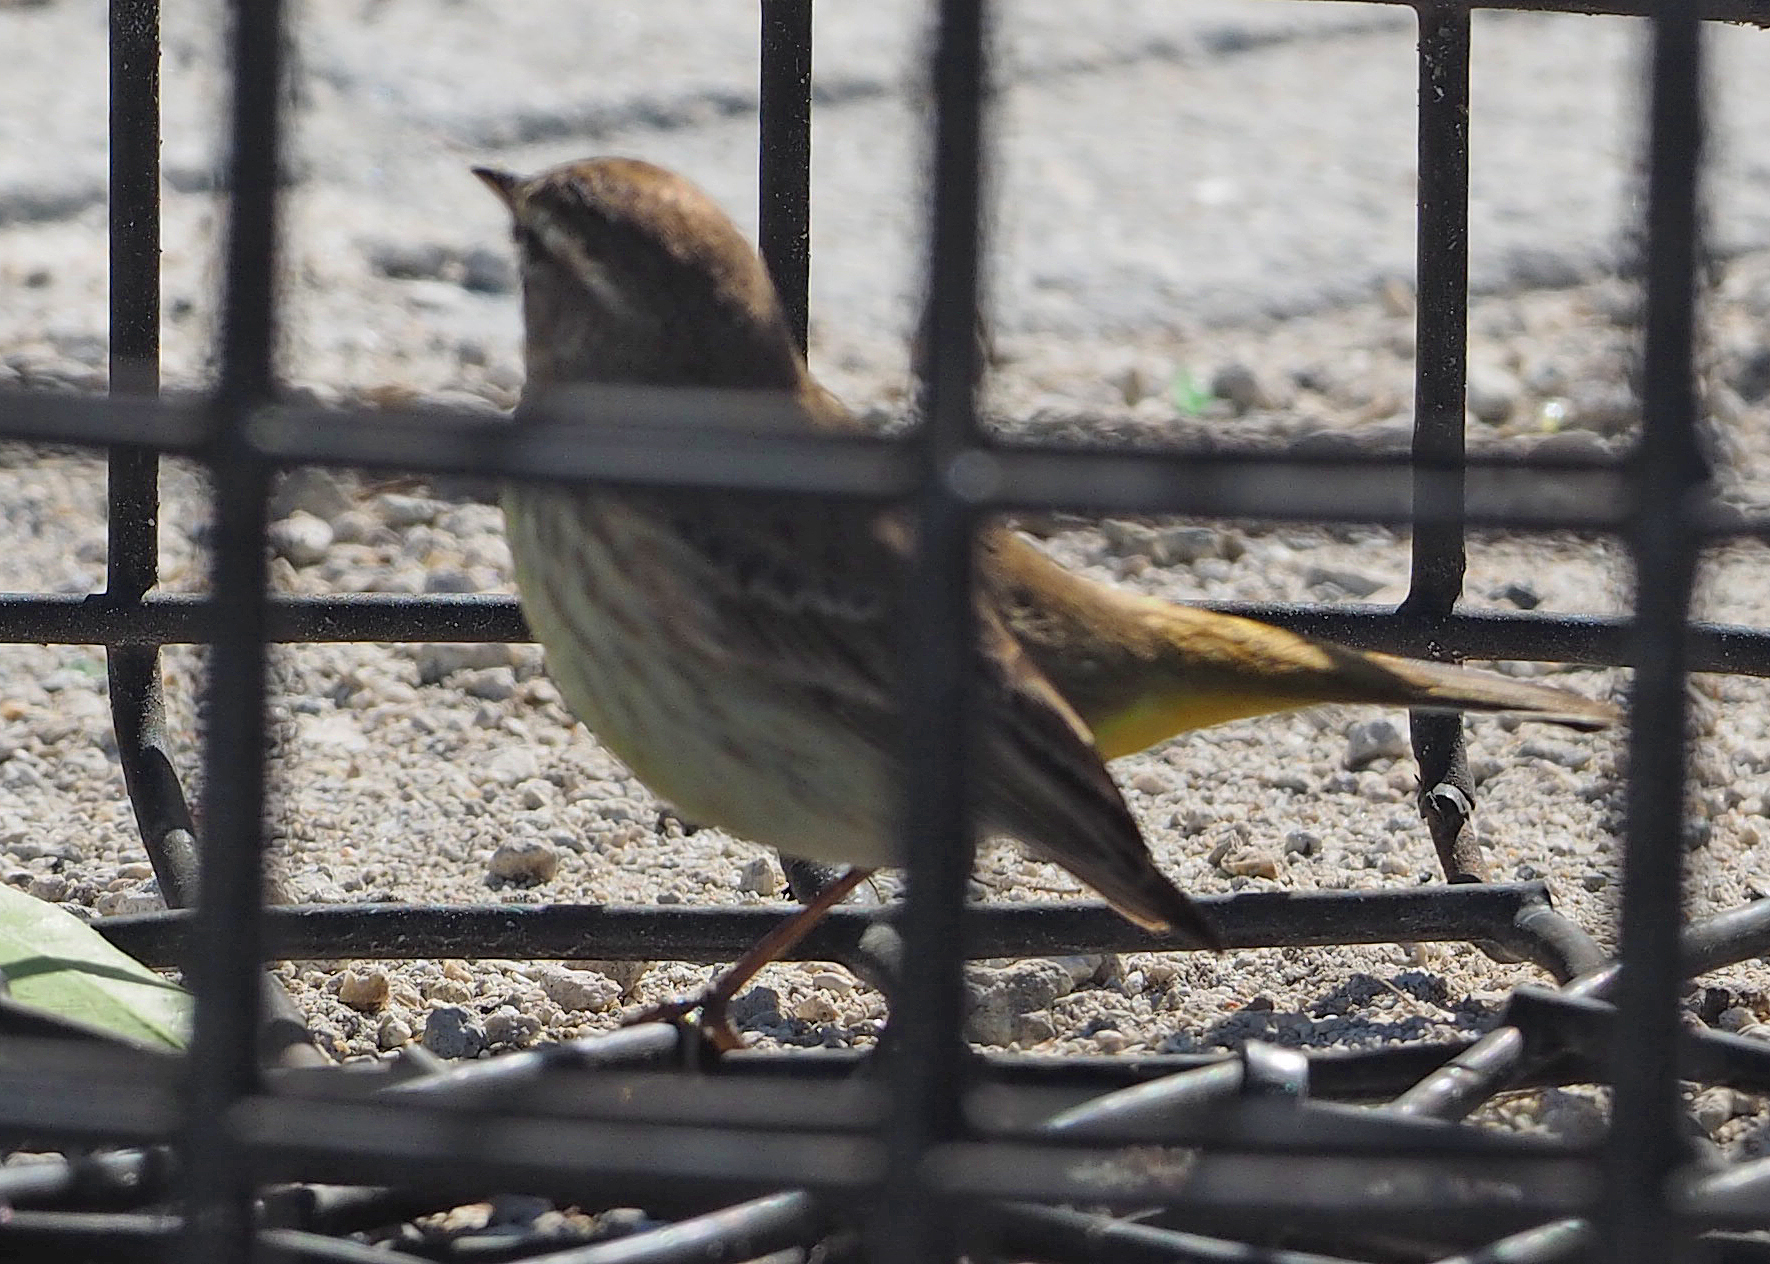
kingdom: Animalia
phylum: Chordata
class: Aves
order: Passeriformes
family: Parulidae
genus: Setophaga
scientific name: Setophaga palmarum
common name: Palm warbler
